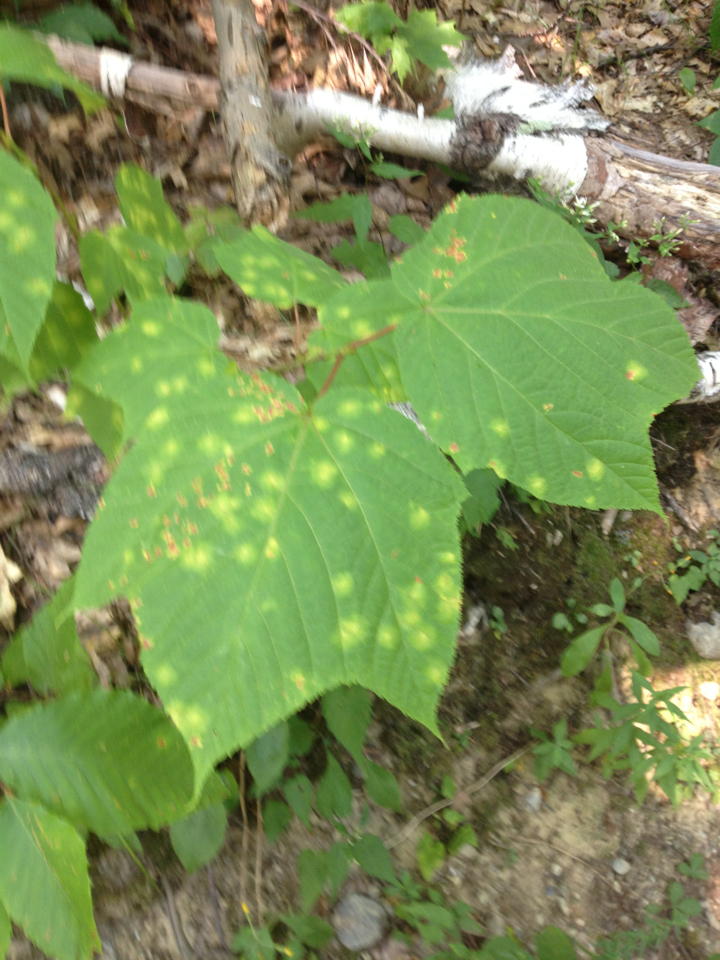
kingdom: Plantae
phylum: Tracheophyta
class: Magnoliopsida
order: Sapindales
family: Sapindaceae
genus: Acer
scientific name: Acer pensylvanicum
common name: Moosewood
